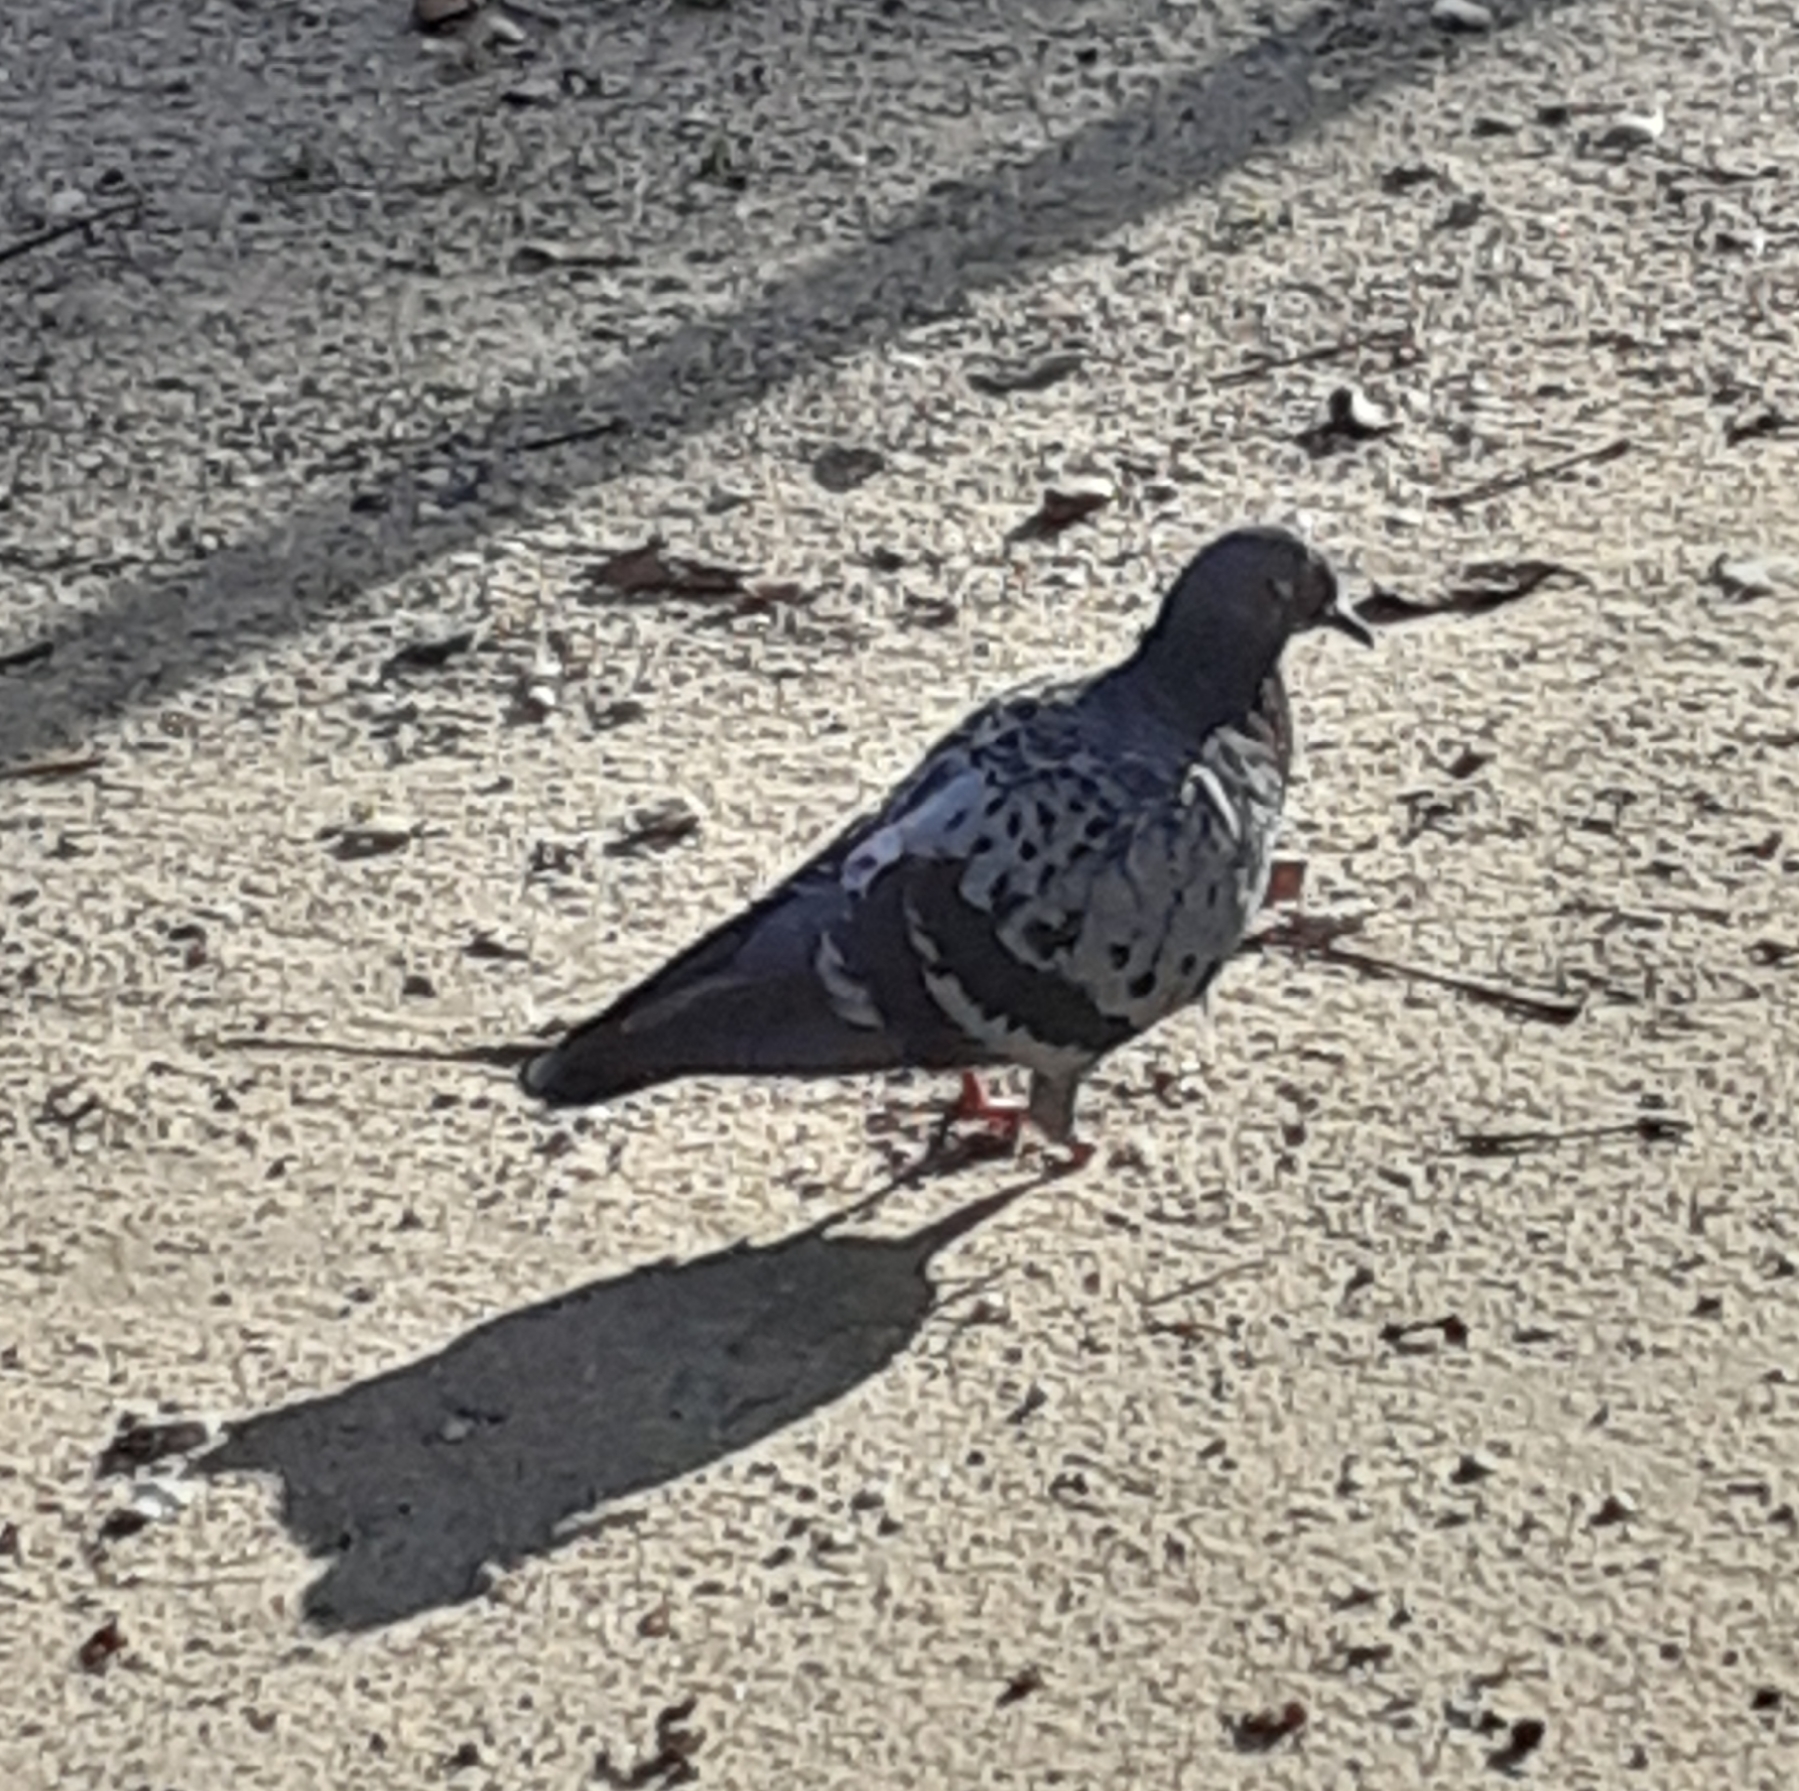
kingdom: Animalia
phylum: Chordata
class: Aves
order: Columbiformes
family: Columbidae
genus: Columba
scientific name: Columba livia
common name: Rock pigeon
